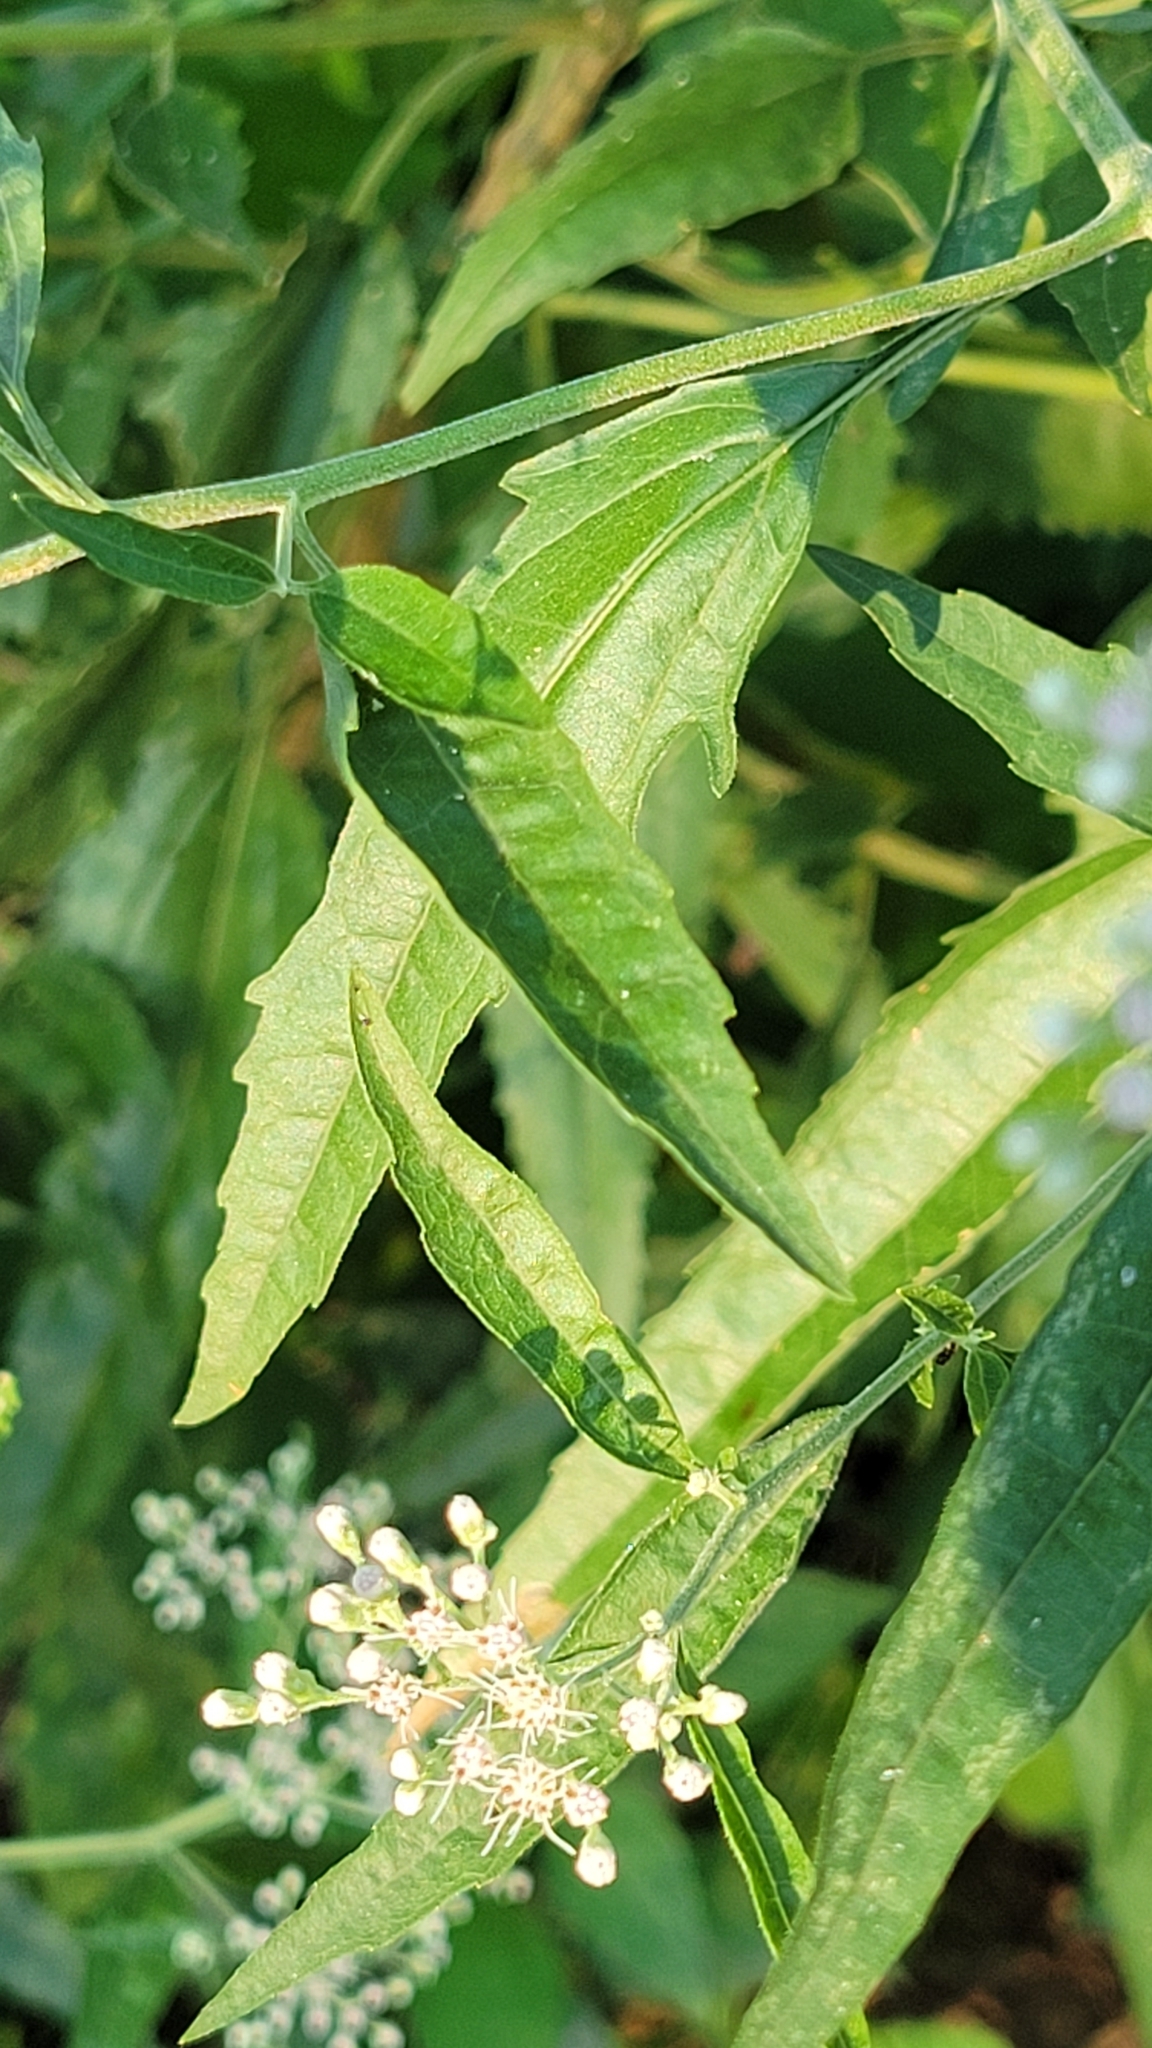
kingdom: Plantae
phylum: Tracheophyta
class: Magnoliopsida
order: Asterales
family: Asteraceae
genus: Eupatorium
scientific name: Eupatorium serotinum
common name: Late boneset
